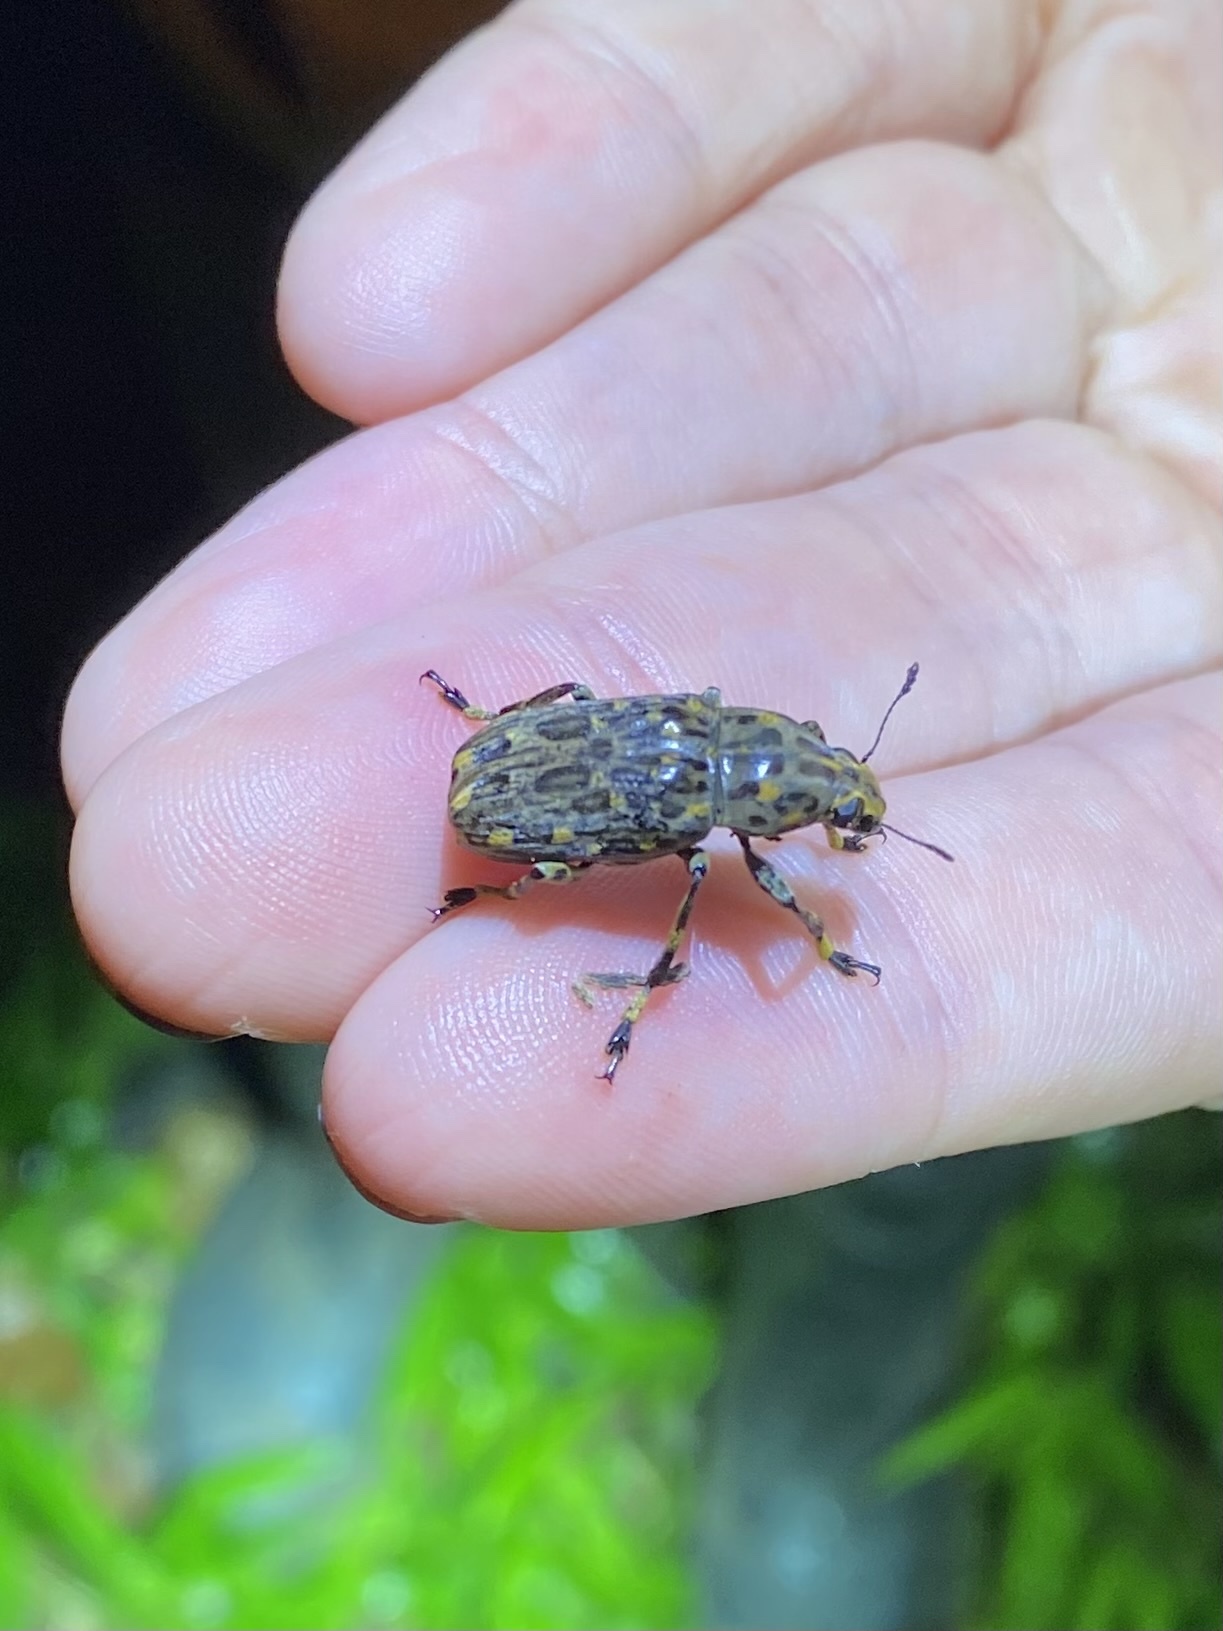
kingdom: Animalia
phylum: Arthropoda
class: Insecta
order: Coleoptera
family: Anthribidae
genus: Euparius
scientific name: Euparius tapirus
